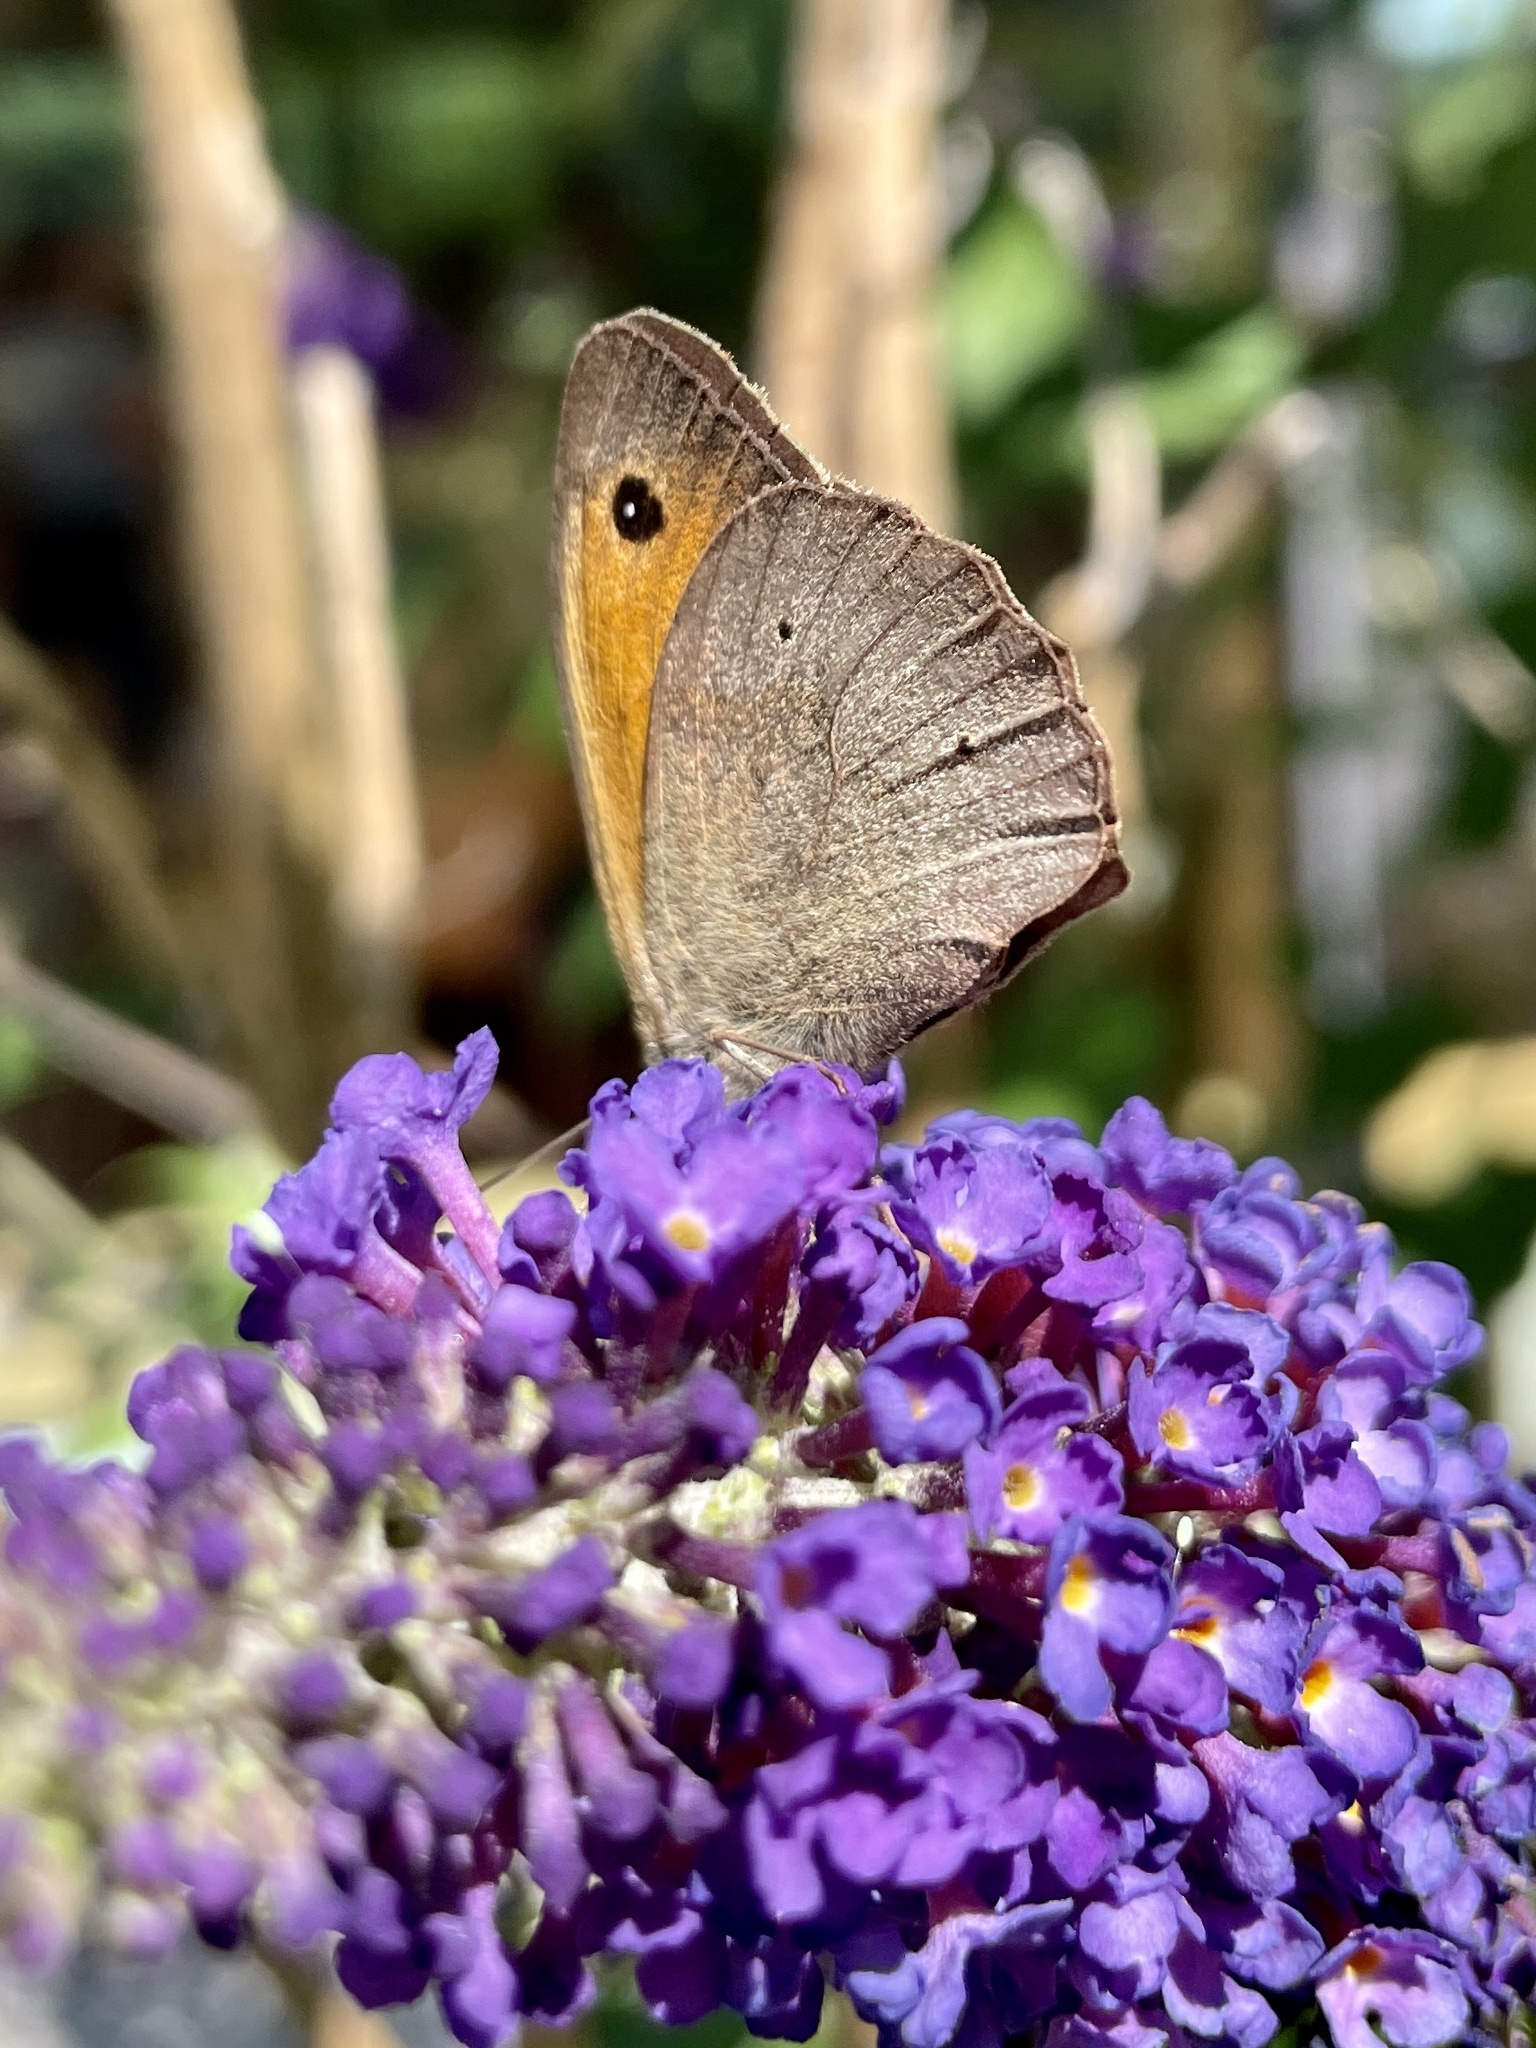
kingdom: Animalia
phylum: Arthropoda
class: Insecta
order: Lepidoptera
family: Nymphalidae
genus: Maniola
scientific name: Maniola jurtina
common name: Meadow brown
